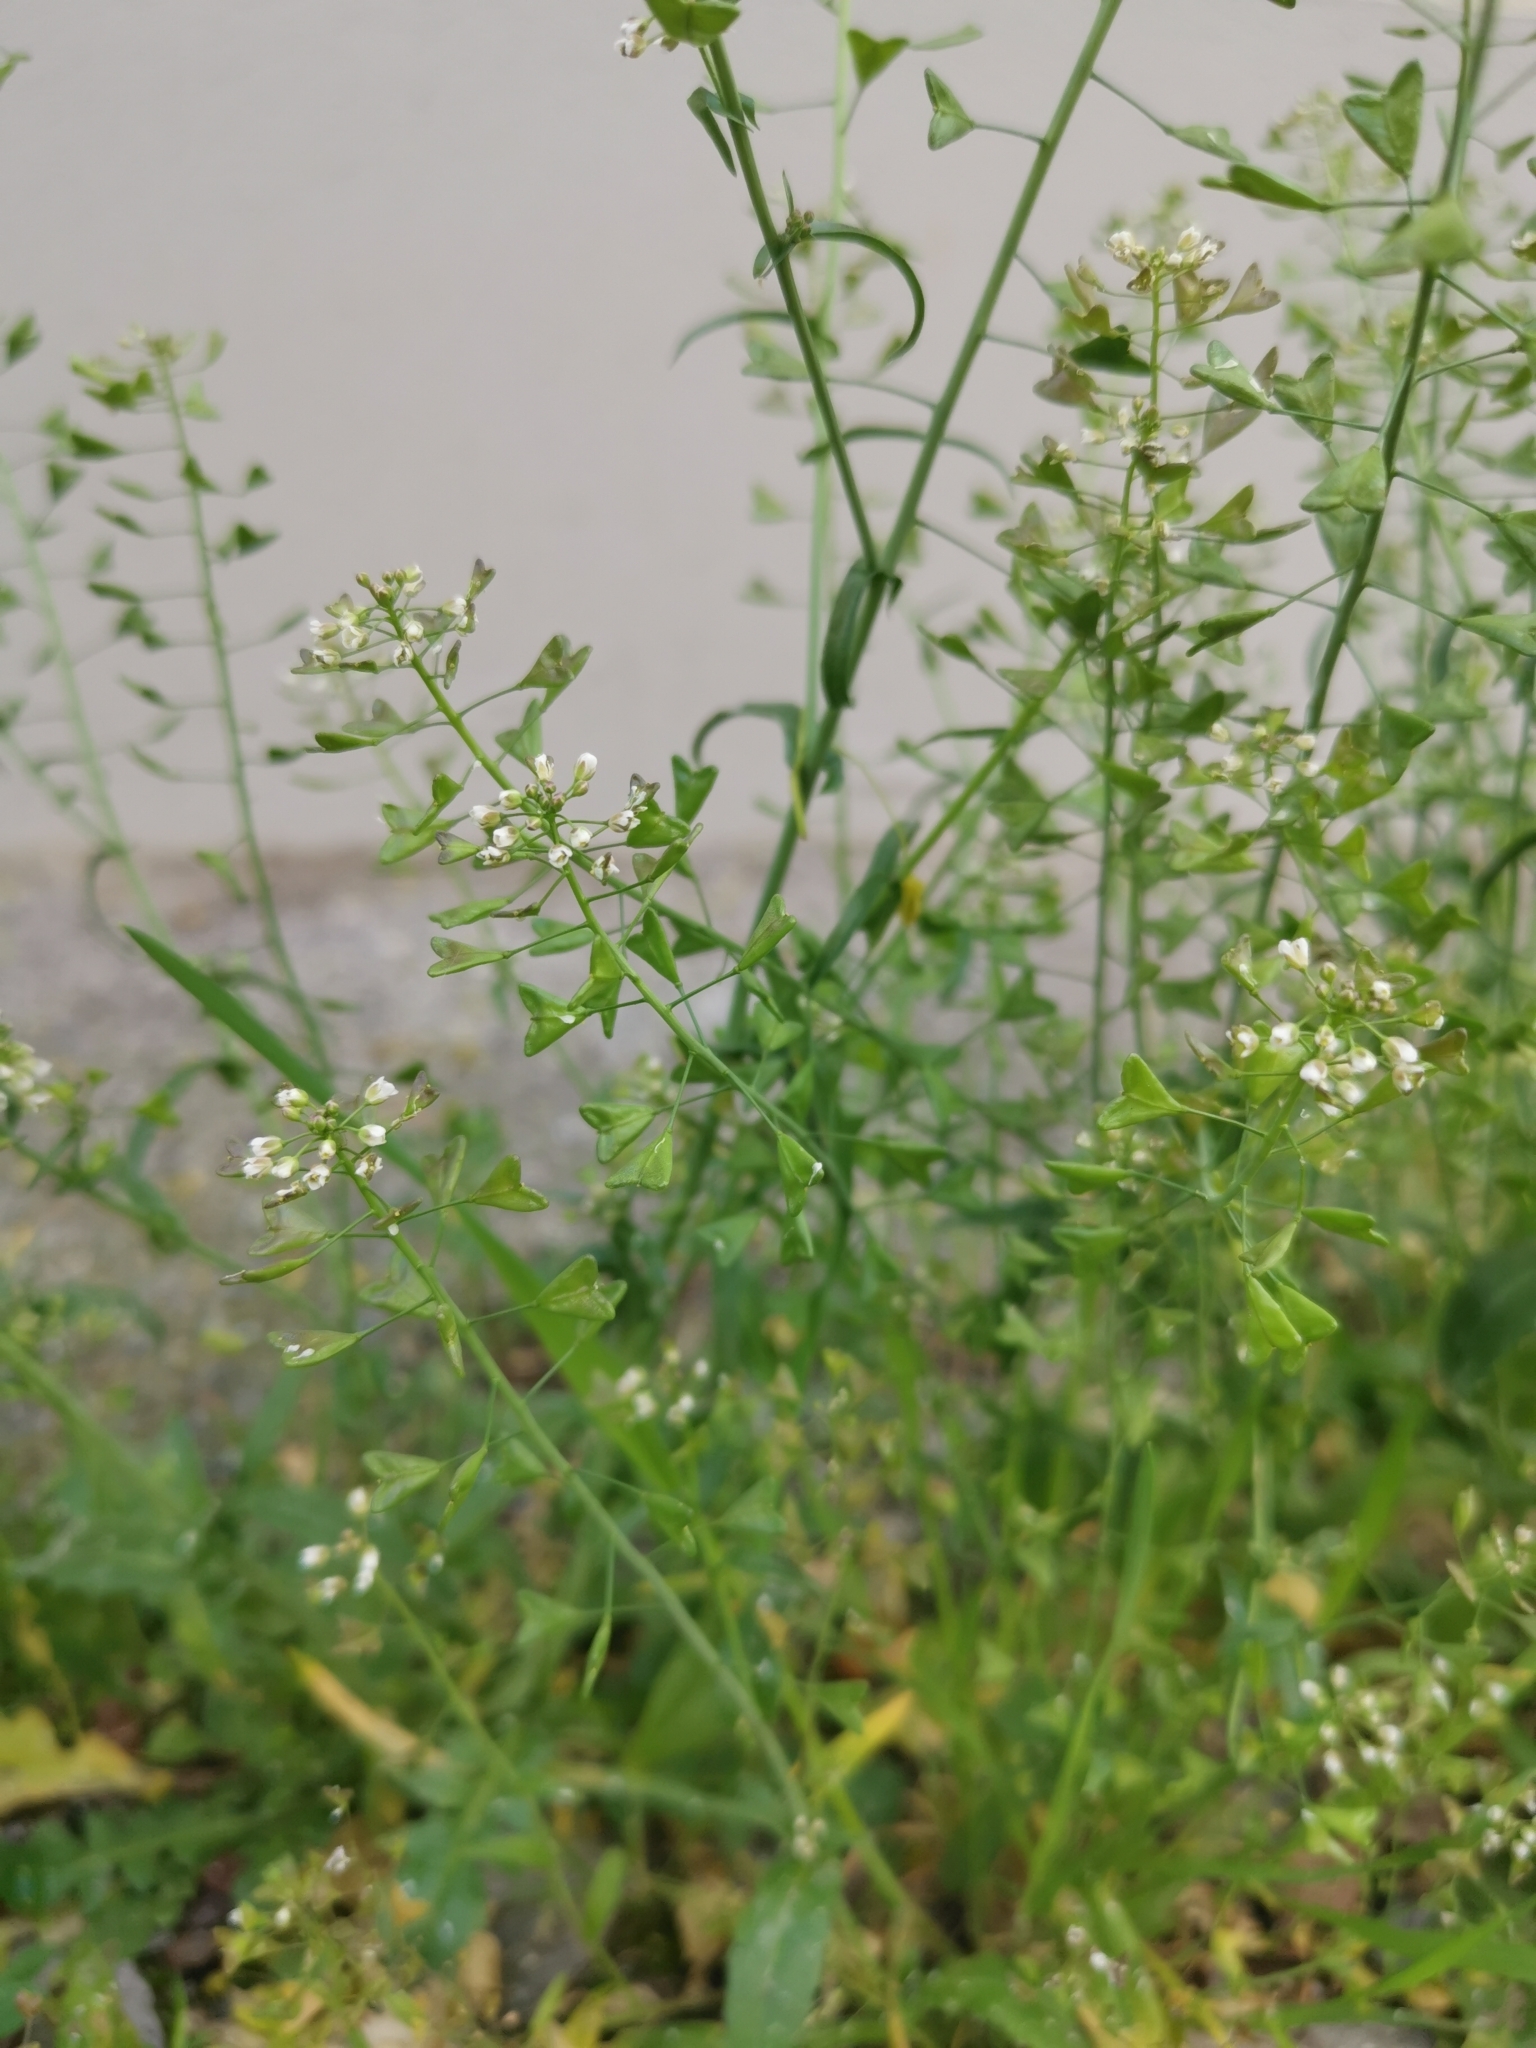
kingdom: Plantae
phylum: Tracheophyta
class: Magnoliopsida
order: Brassicales
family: Brassicaceae
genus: Capsella
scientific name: Capsella bursa-pastoris
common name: Shepherd's purse
